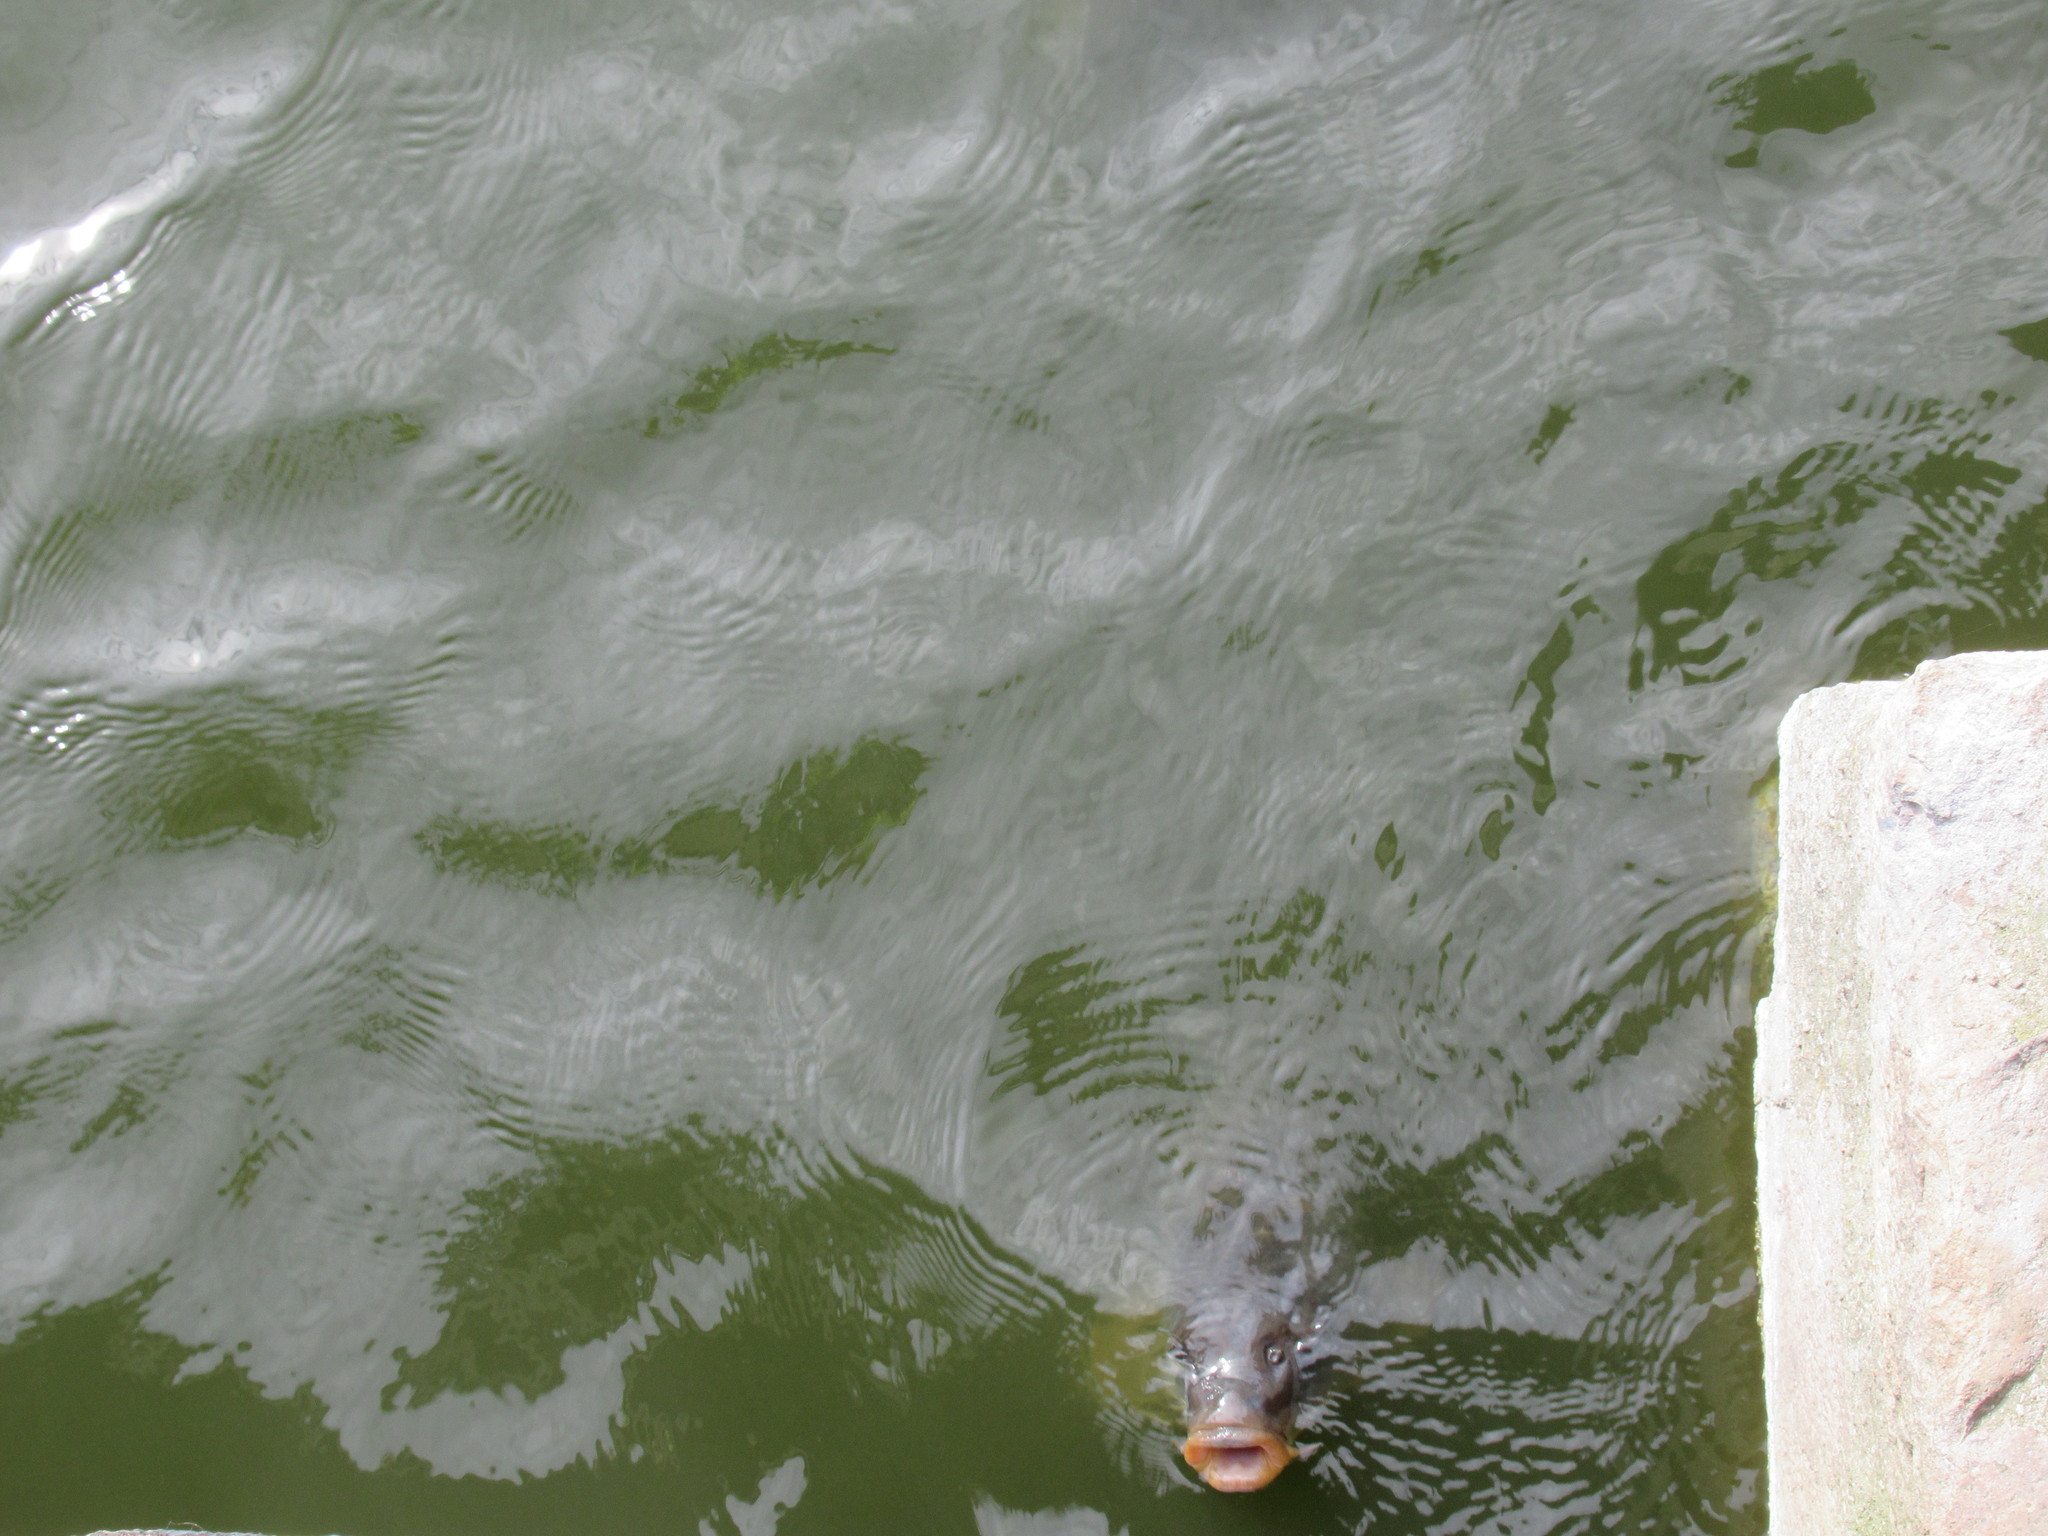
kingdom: Animalia
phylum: Chordata
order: Cypriniformes
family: Cyprinidae
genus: Cyprinus
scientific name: Cyprinus carpio
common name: Common carp
